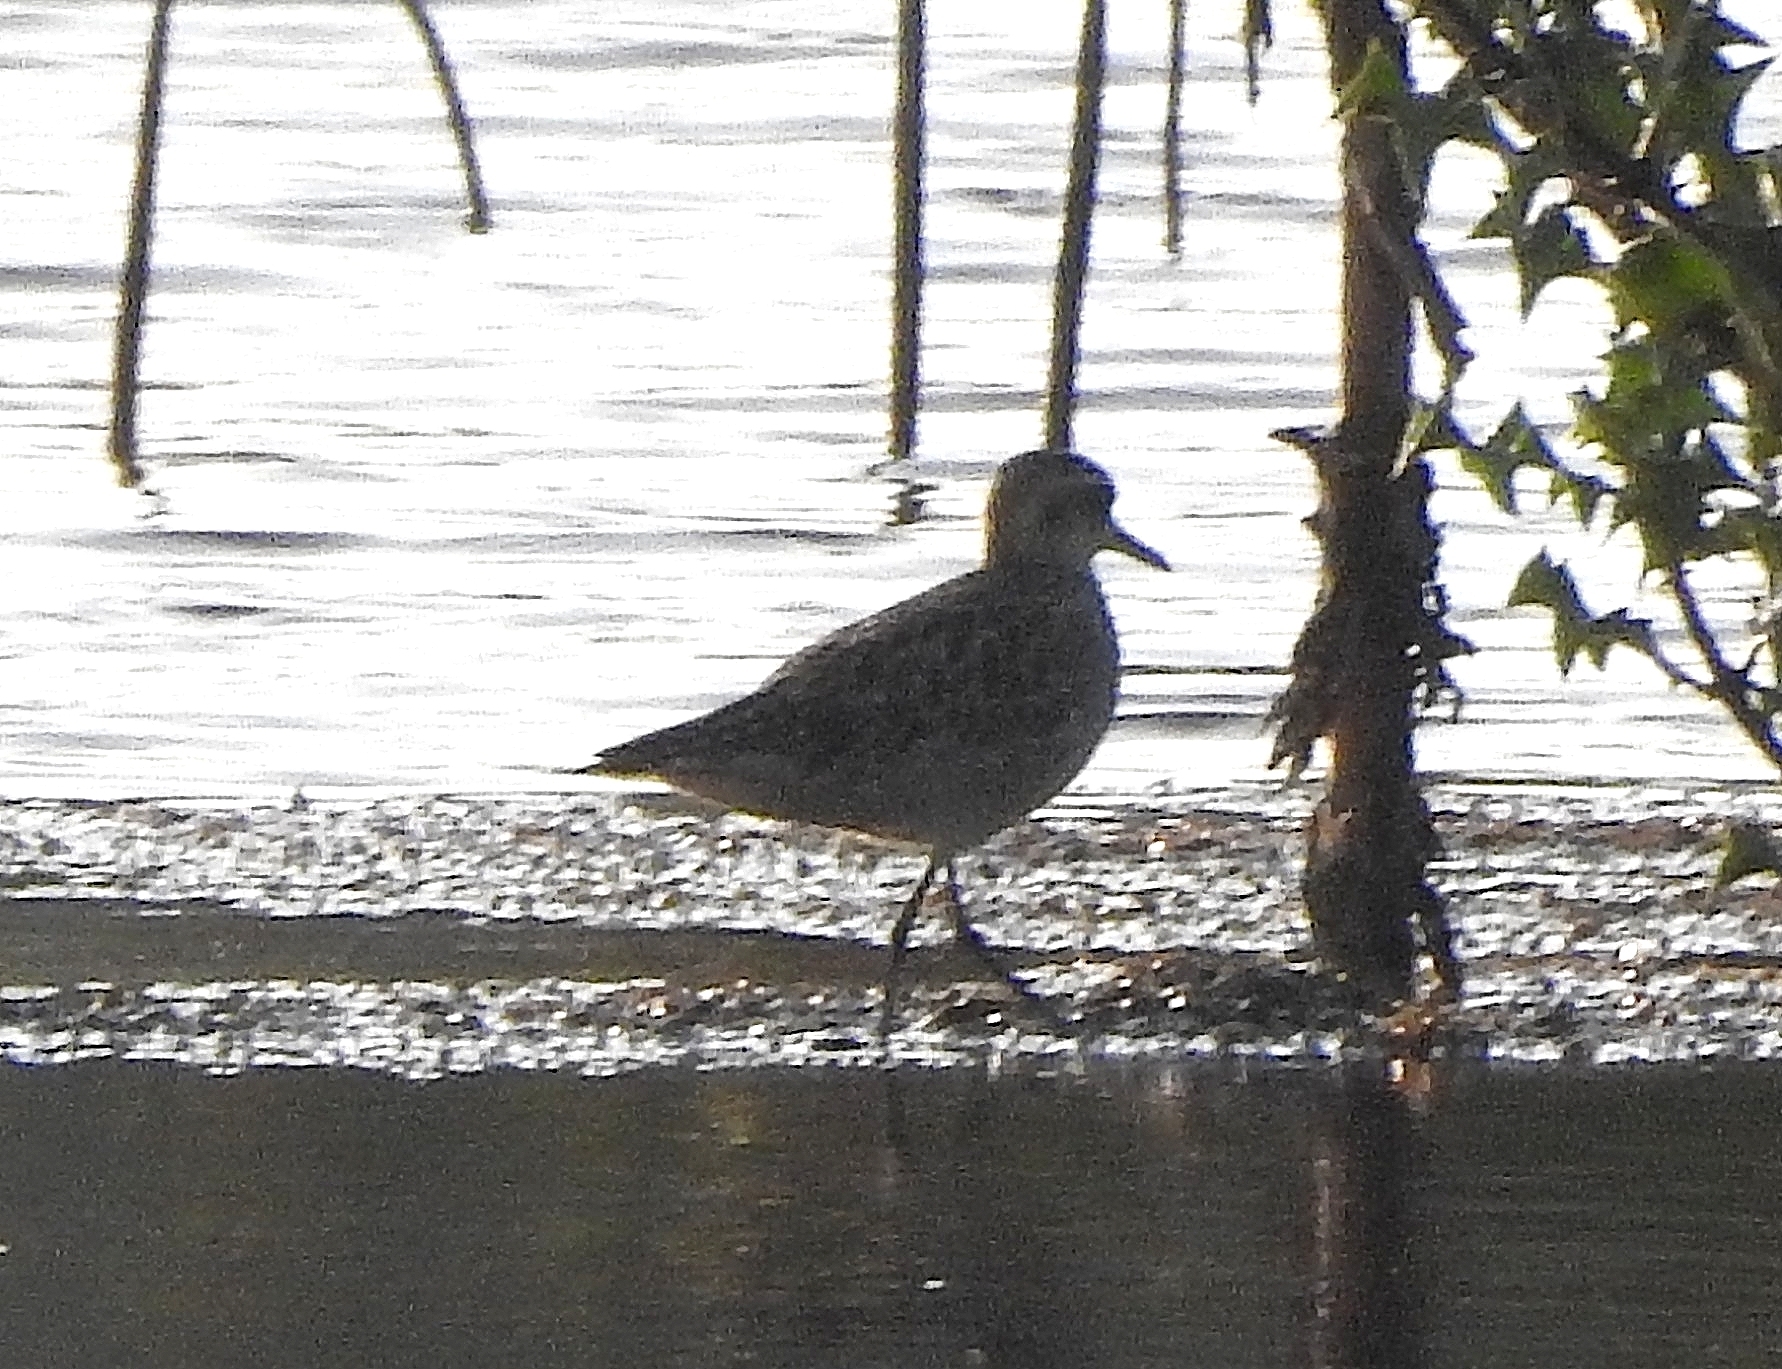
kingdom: Animalia
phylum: Chordata
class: Aves
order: Charadriiformes
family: Charadriidae
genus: Pluvialis
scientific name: Pluvialis fulva
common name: Pacific golden plover
